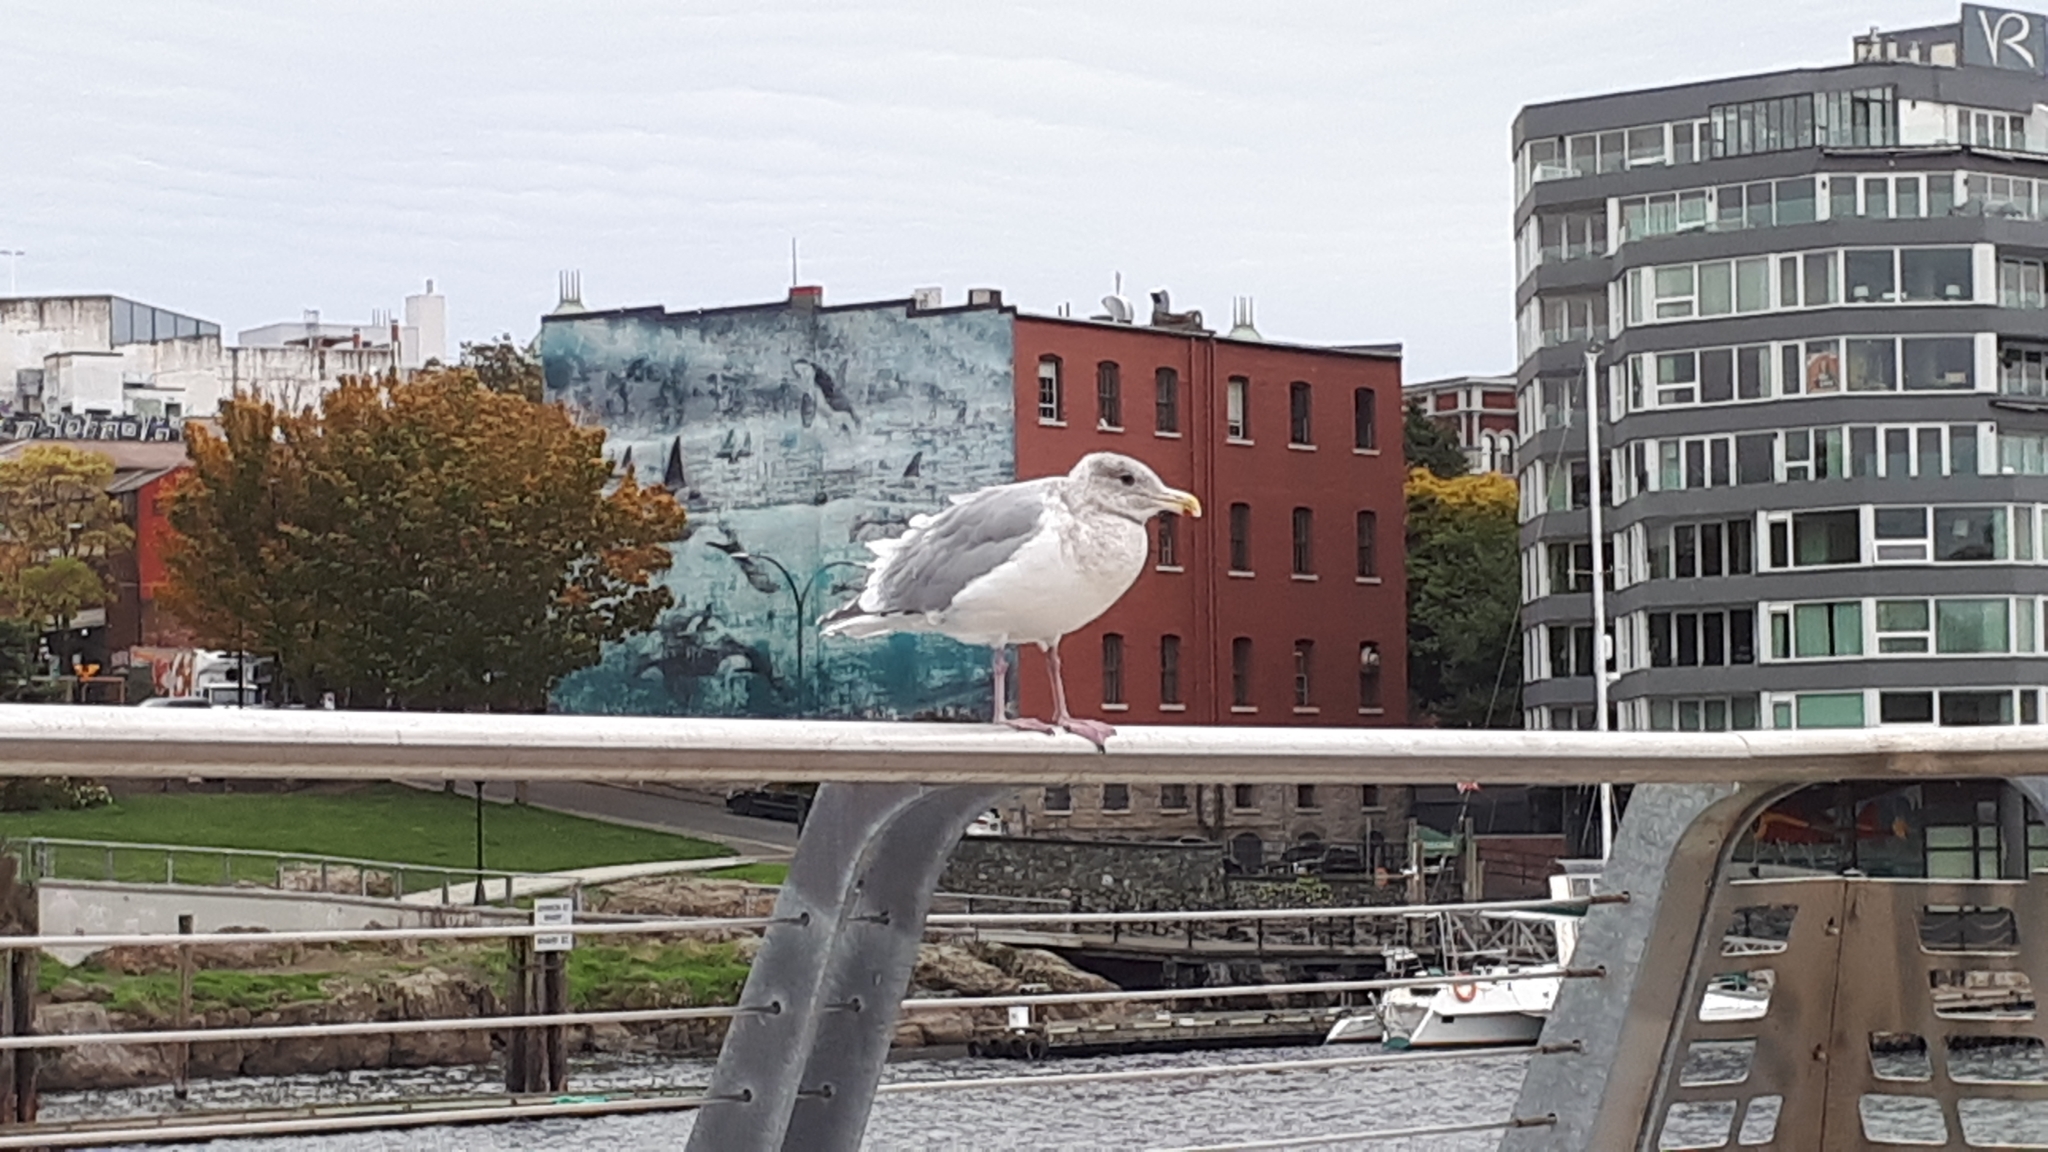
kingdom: Animalia
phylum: Chordata
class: Aves
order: Charadriiformes
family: Laridae
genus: Larus
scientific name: Larus
